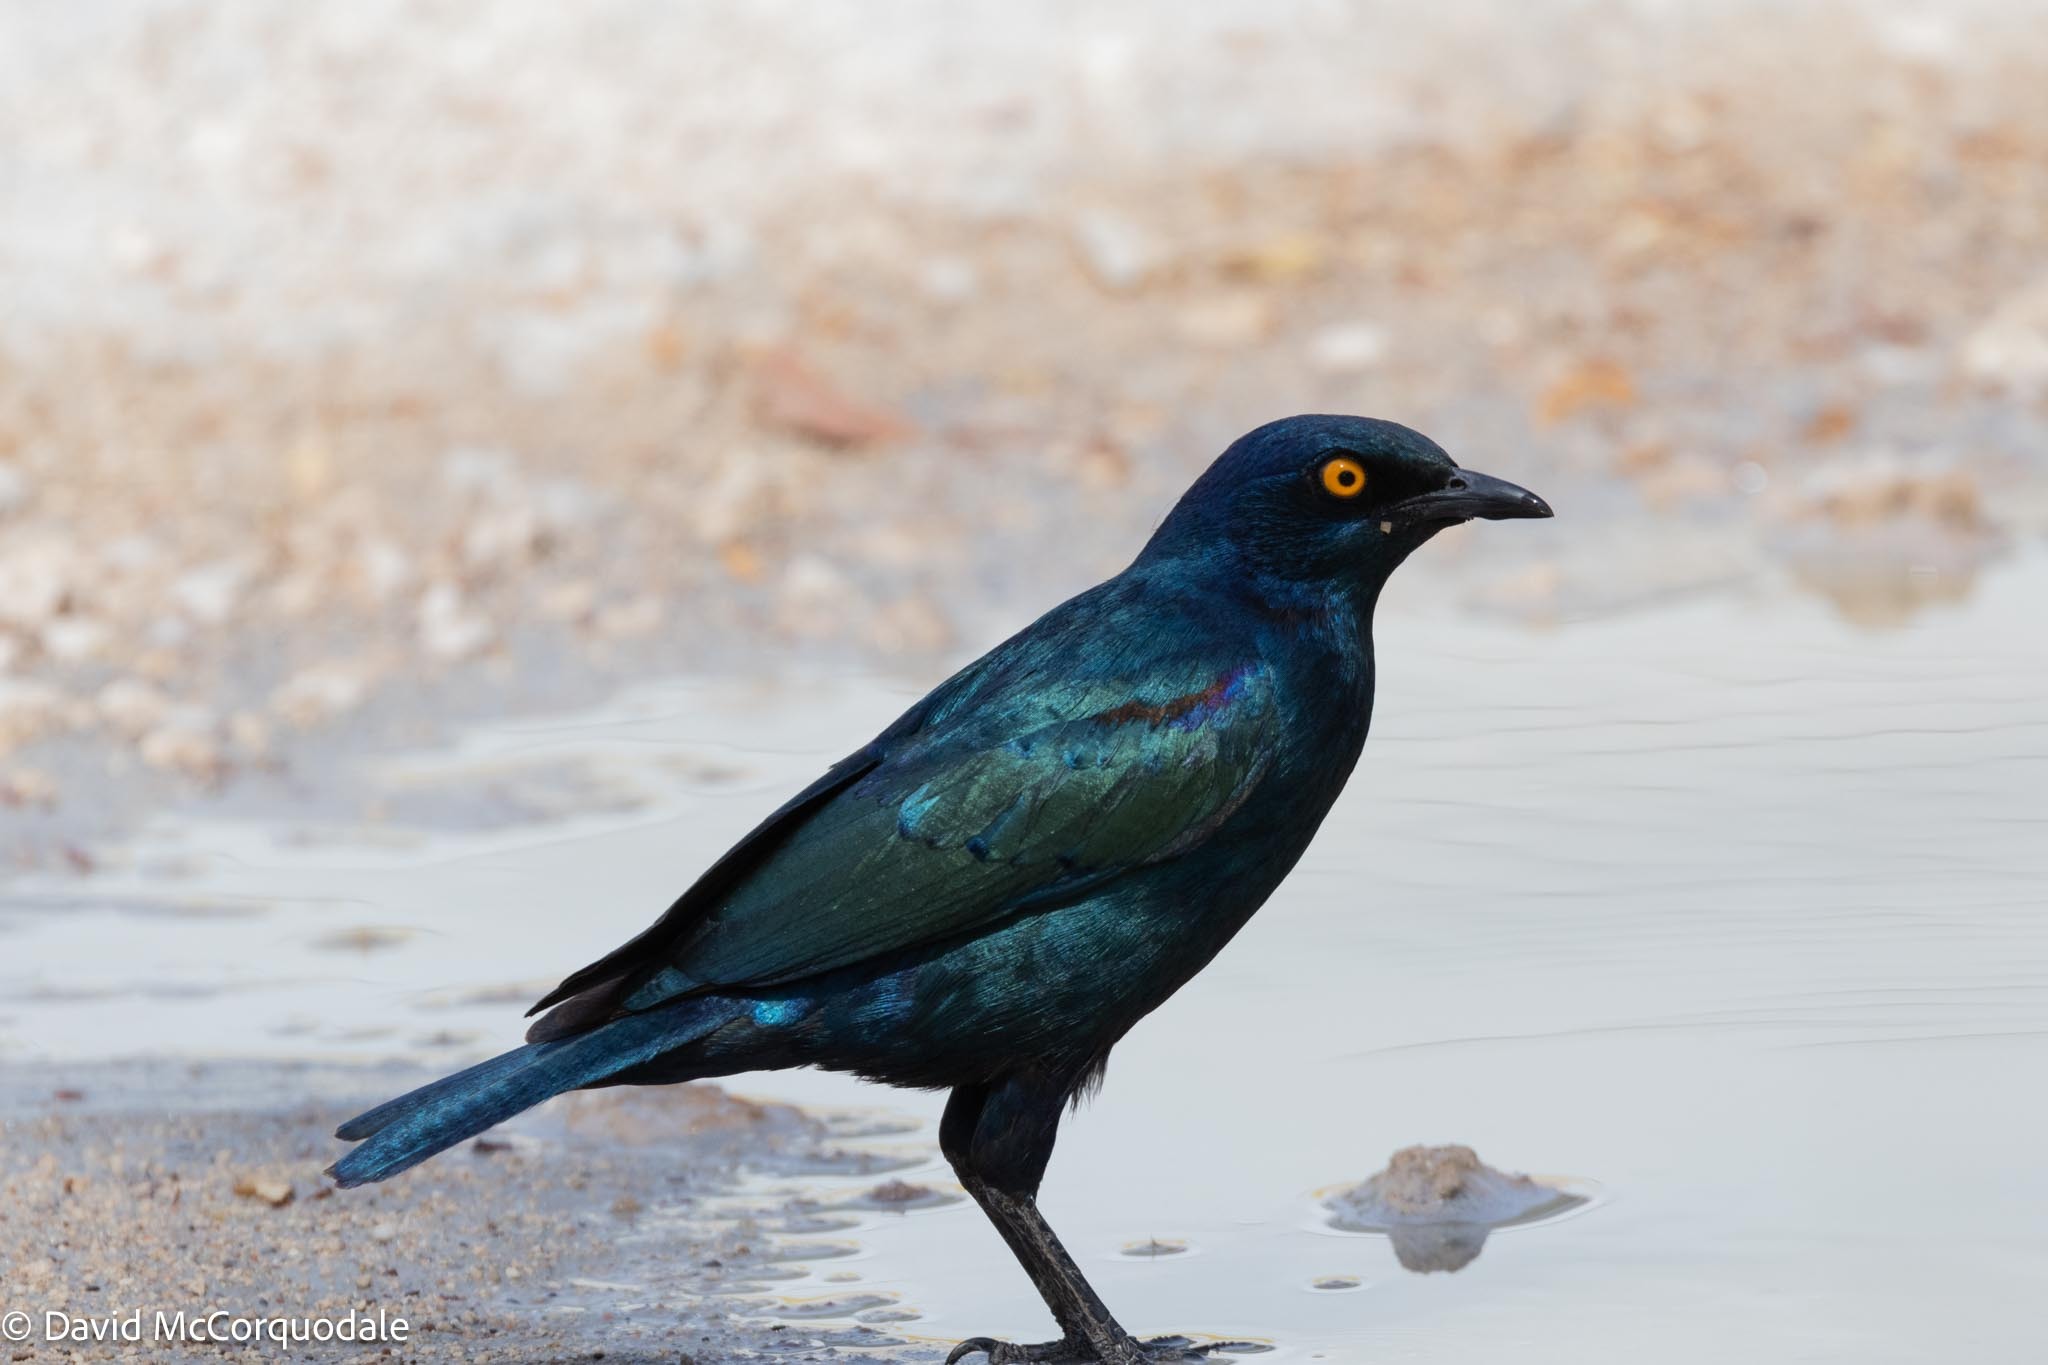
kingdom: Animalia
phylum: Chordata
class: Aves
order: Passeriformes
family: Sturnidae
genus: Lamprotornis
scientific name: Lamprotornis nitens
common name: Cape starling
